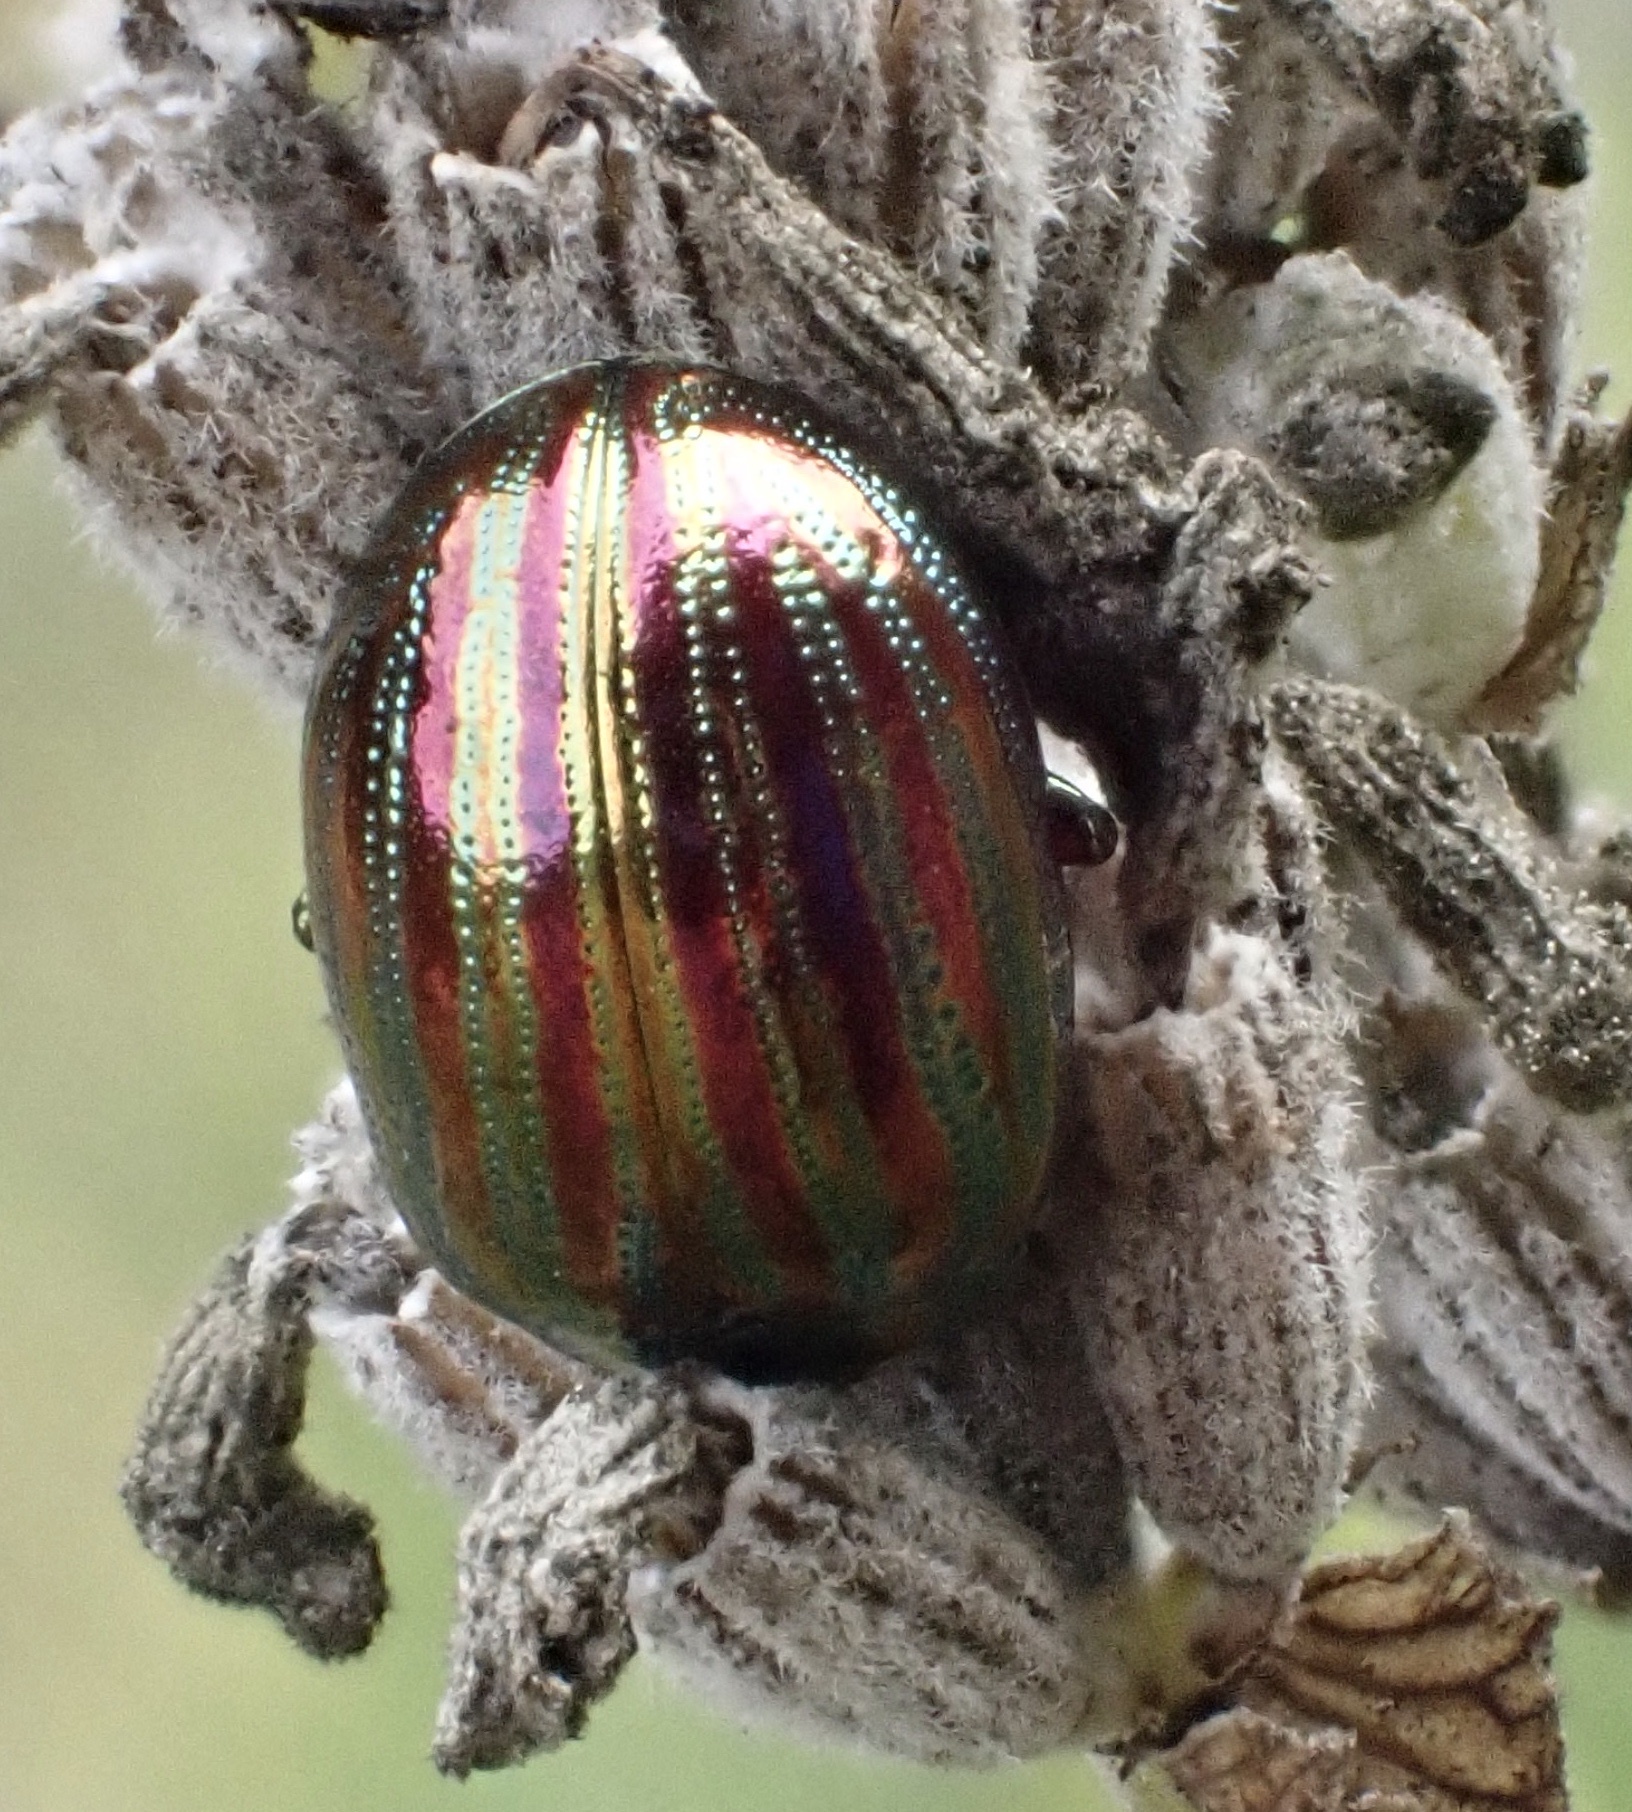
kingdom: Animalia
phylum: Arthropoda
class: Insecta
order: Coleoptera
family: Chrysomelidae
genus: Chrysolina
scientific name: Chrysolina americana
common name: Rosemary beetle
